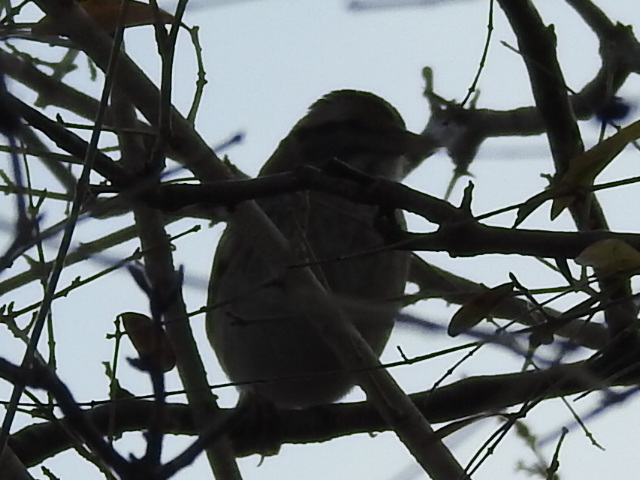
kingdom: Animalia
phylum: Chordata
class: Aves
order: Passeriformes
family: Passerellidae
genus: Zonotrichia
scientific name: Zonotrichia albicollis
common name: White-throated sparrow
